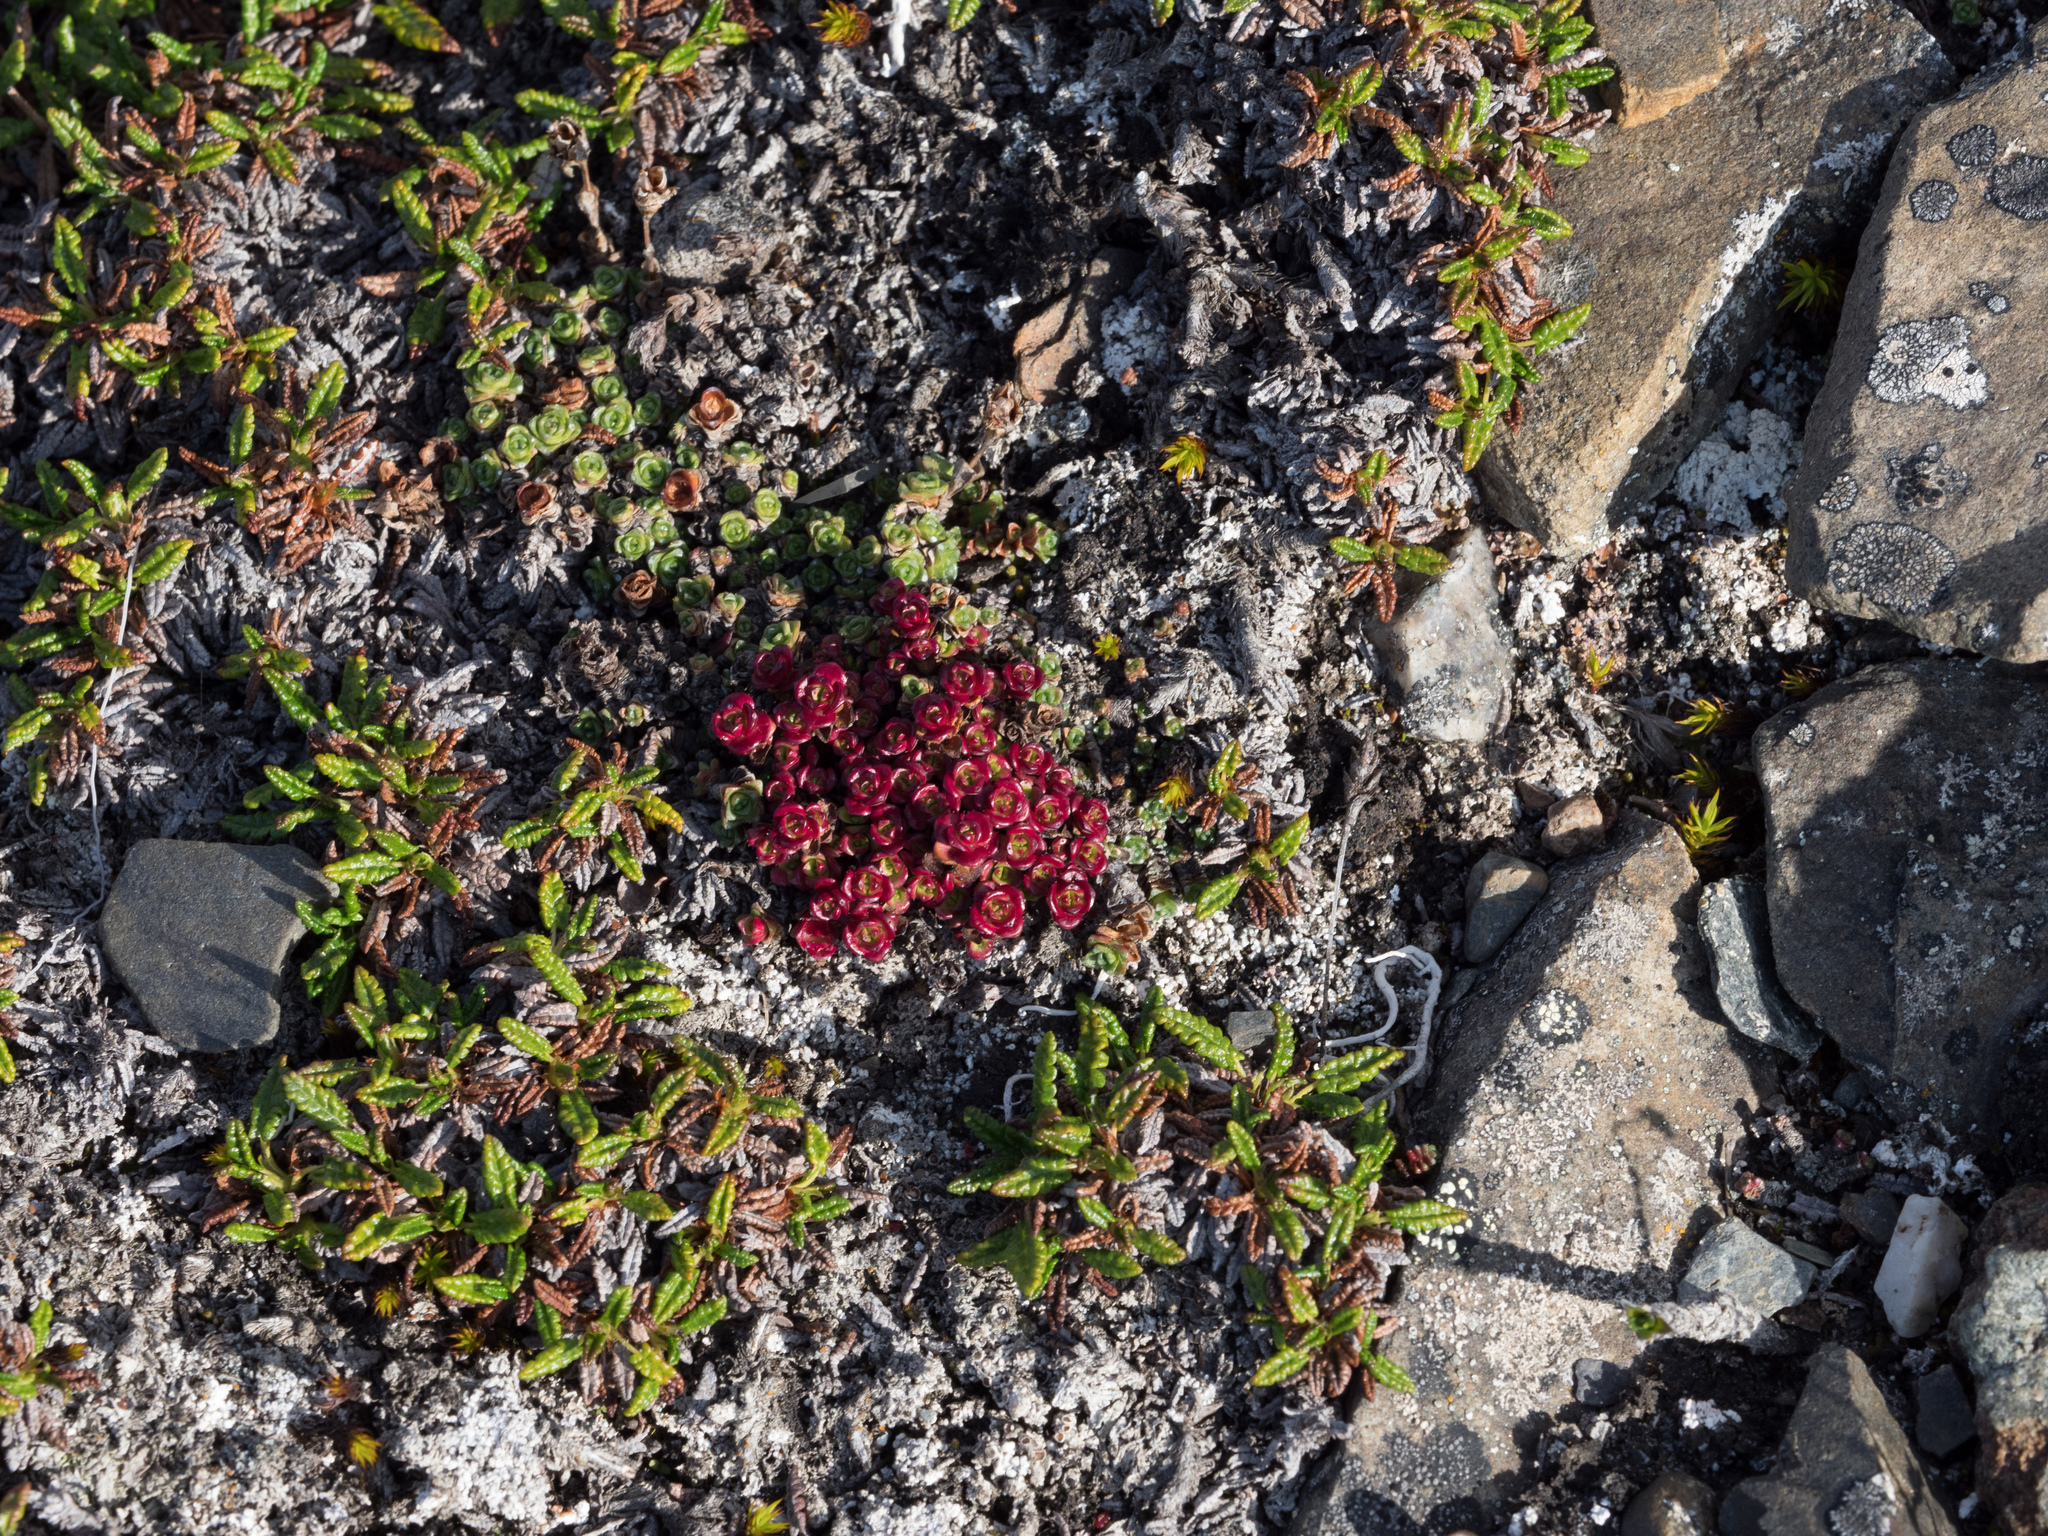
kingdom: Plantae
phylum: Tracheophyta
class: Magnoliopsida
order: Saxifragales
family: Saxifragaceae
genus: Saxifraga
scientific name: Saxifraga oppositifolia
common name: Purple saxifrage
